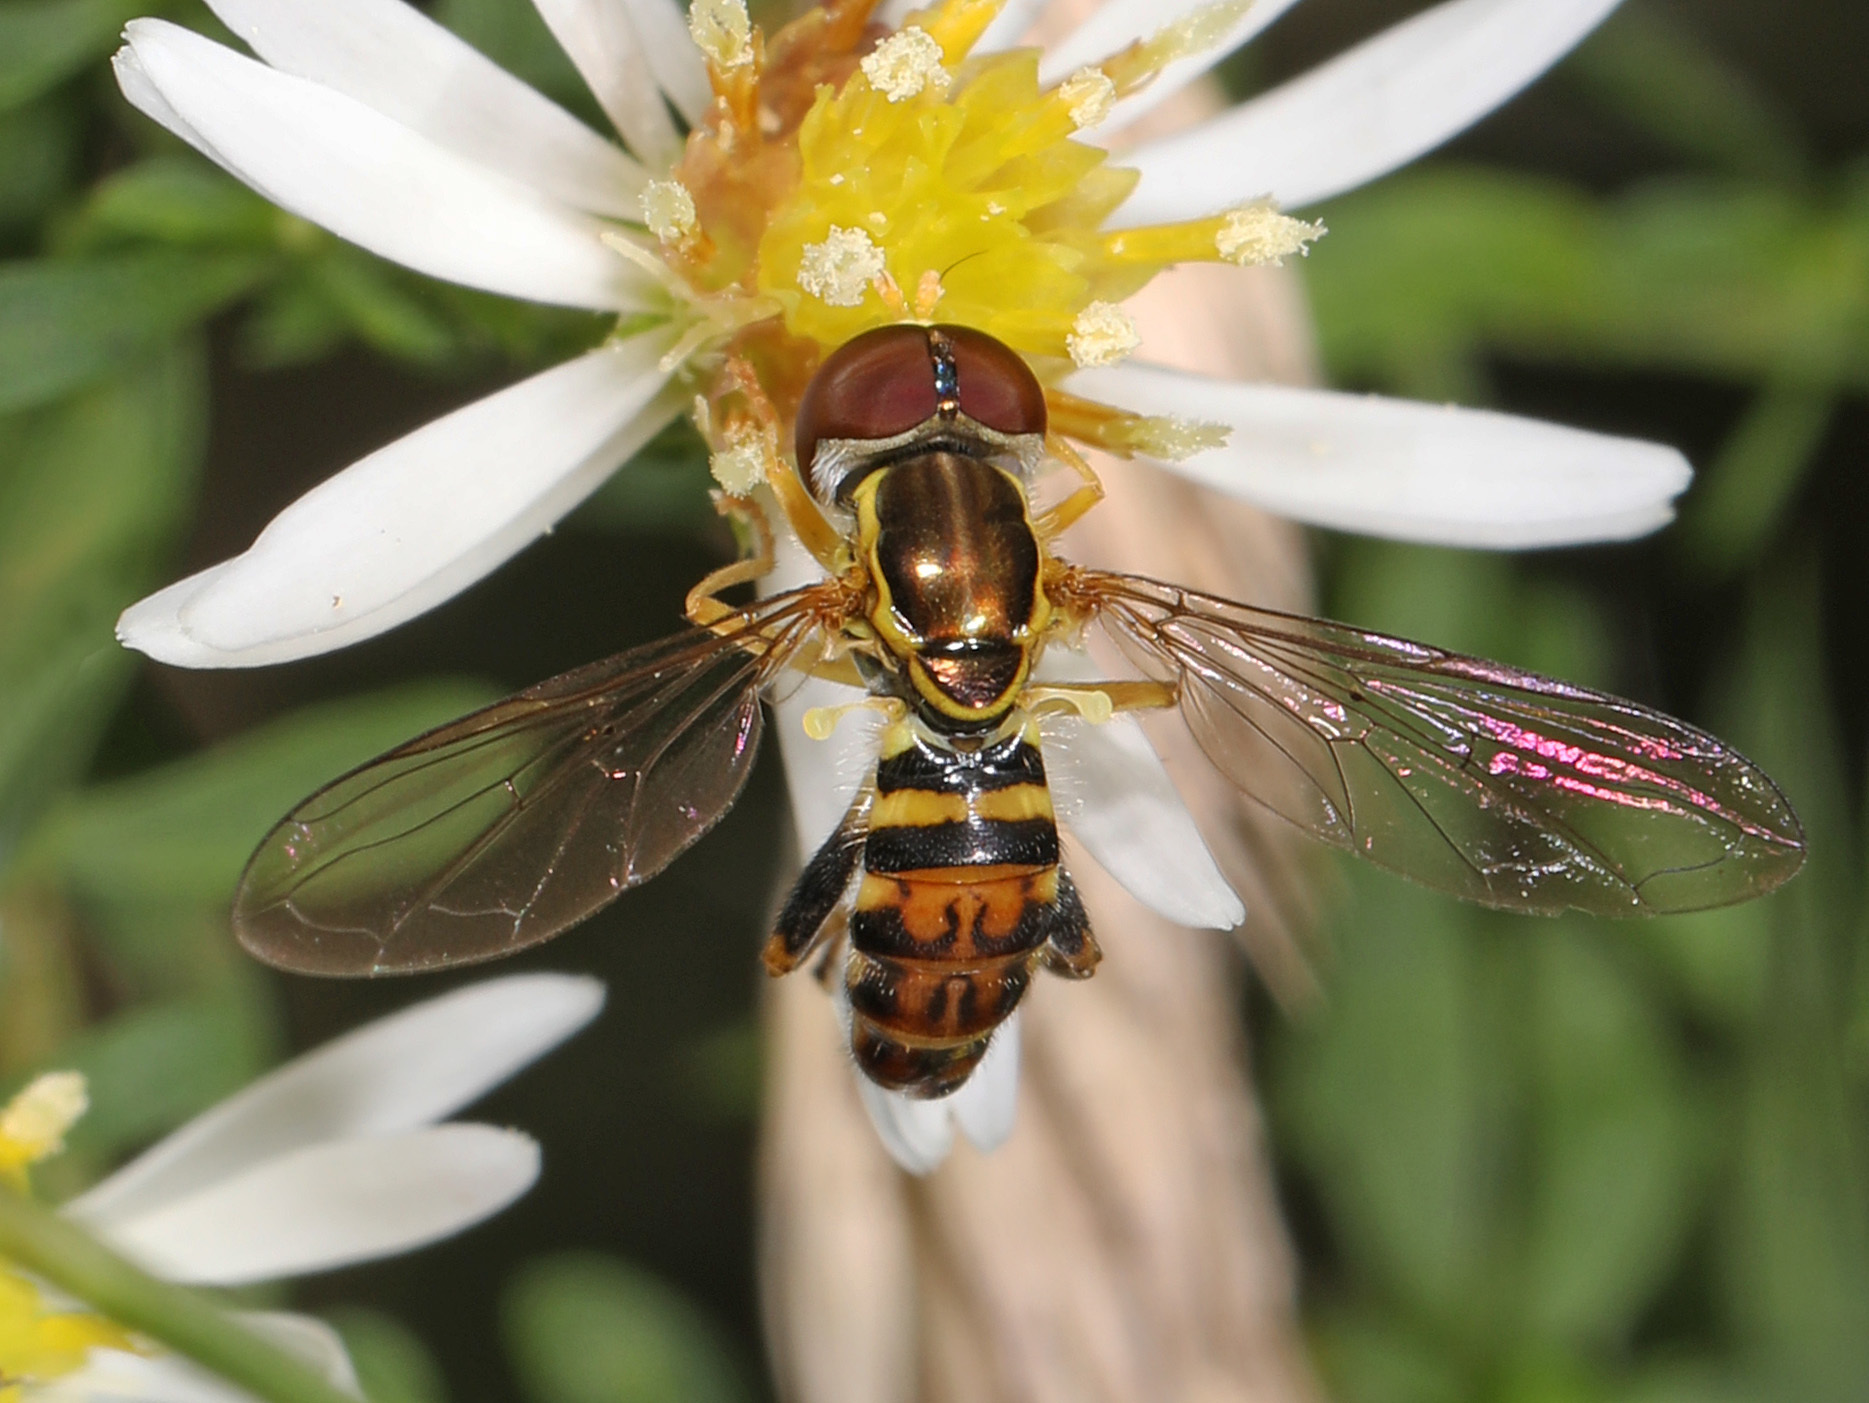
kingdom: Animalia
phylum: Arthropoda
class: Insecta
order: Diptera
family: Syrphidae
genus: Toxomerus
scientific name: Toxomerus geminatus
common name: Eastern calligrapher
